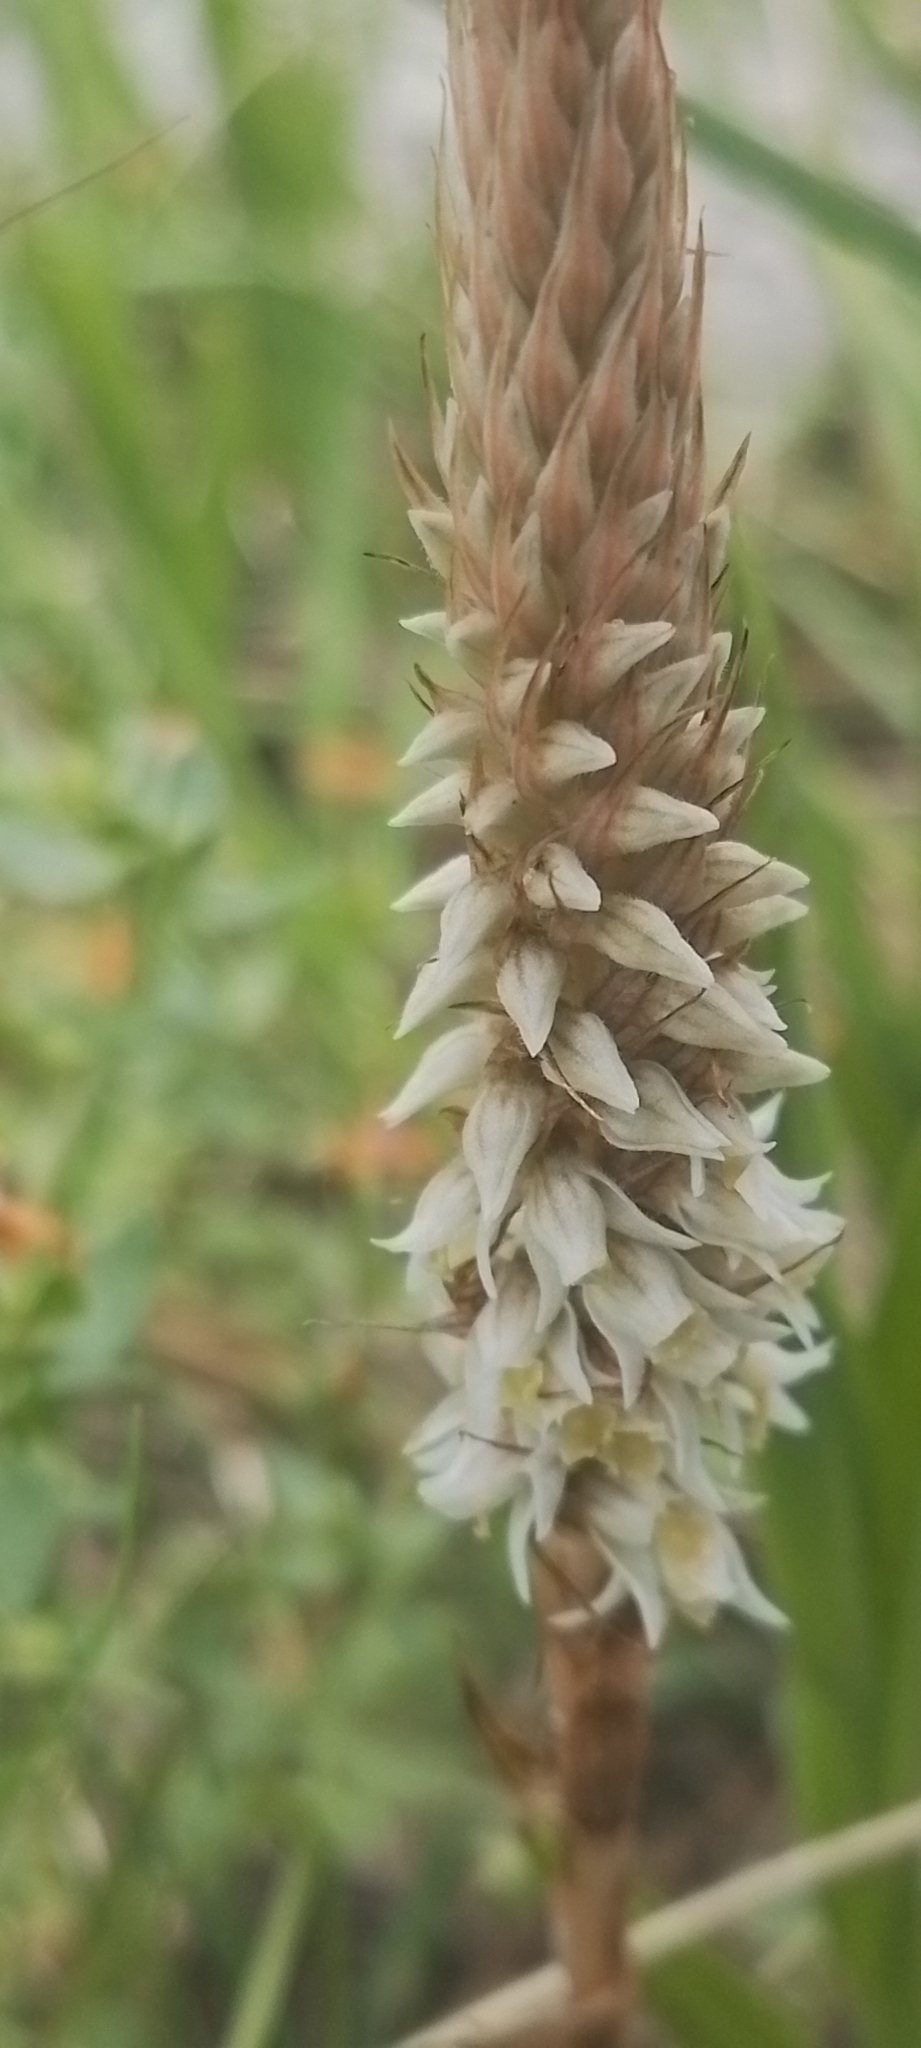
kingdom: Plantae
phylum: Tracheophyta
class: Liliopsida
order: Asparagales
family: Orchidaceae
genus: Brachystele
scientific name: Brachystele camporum
